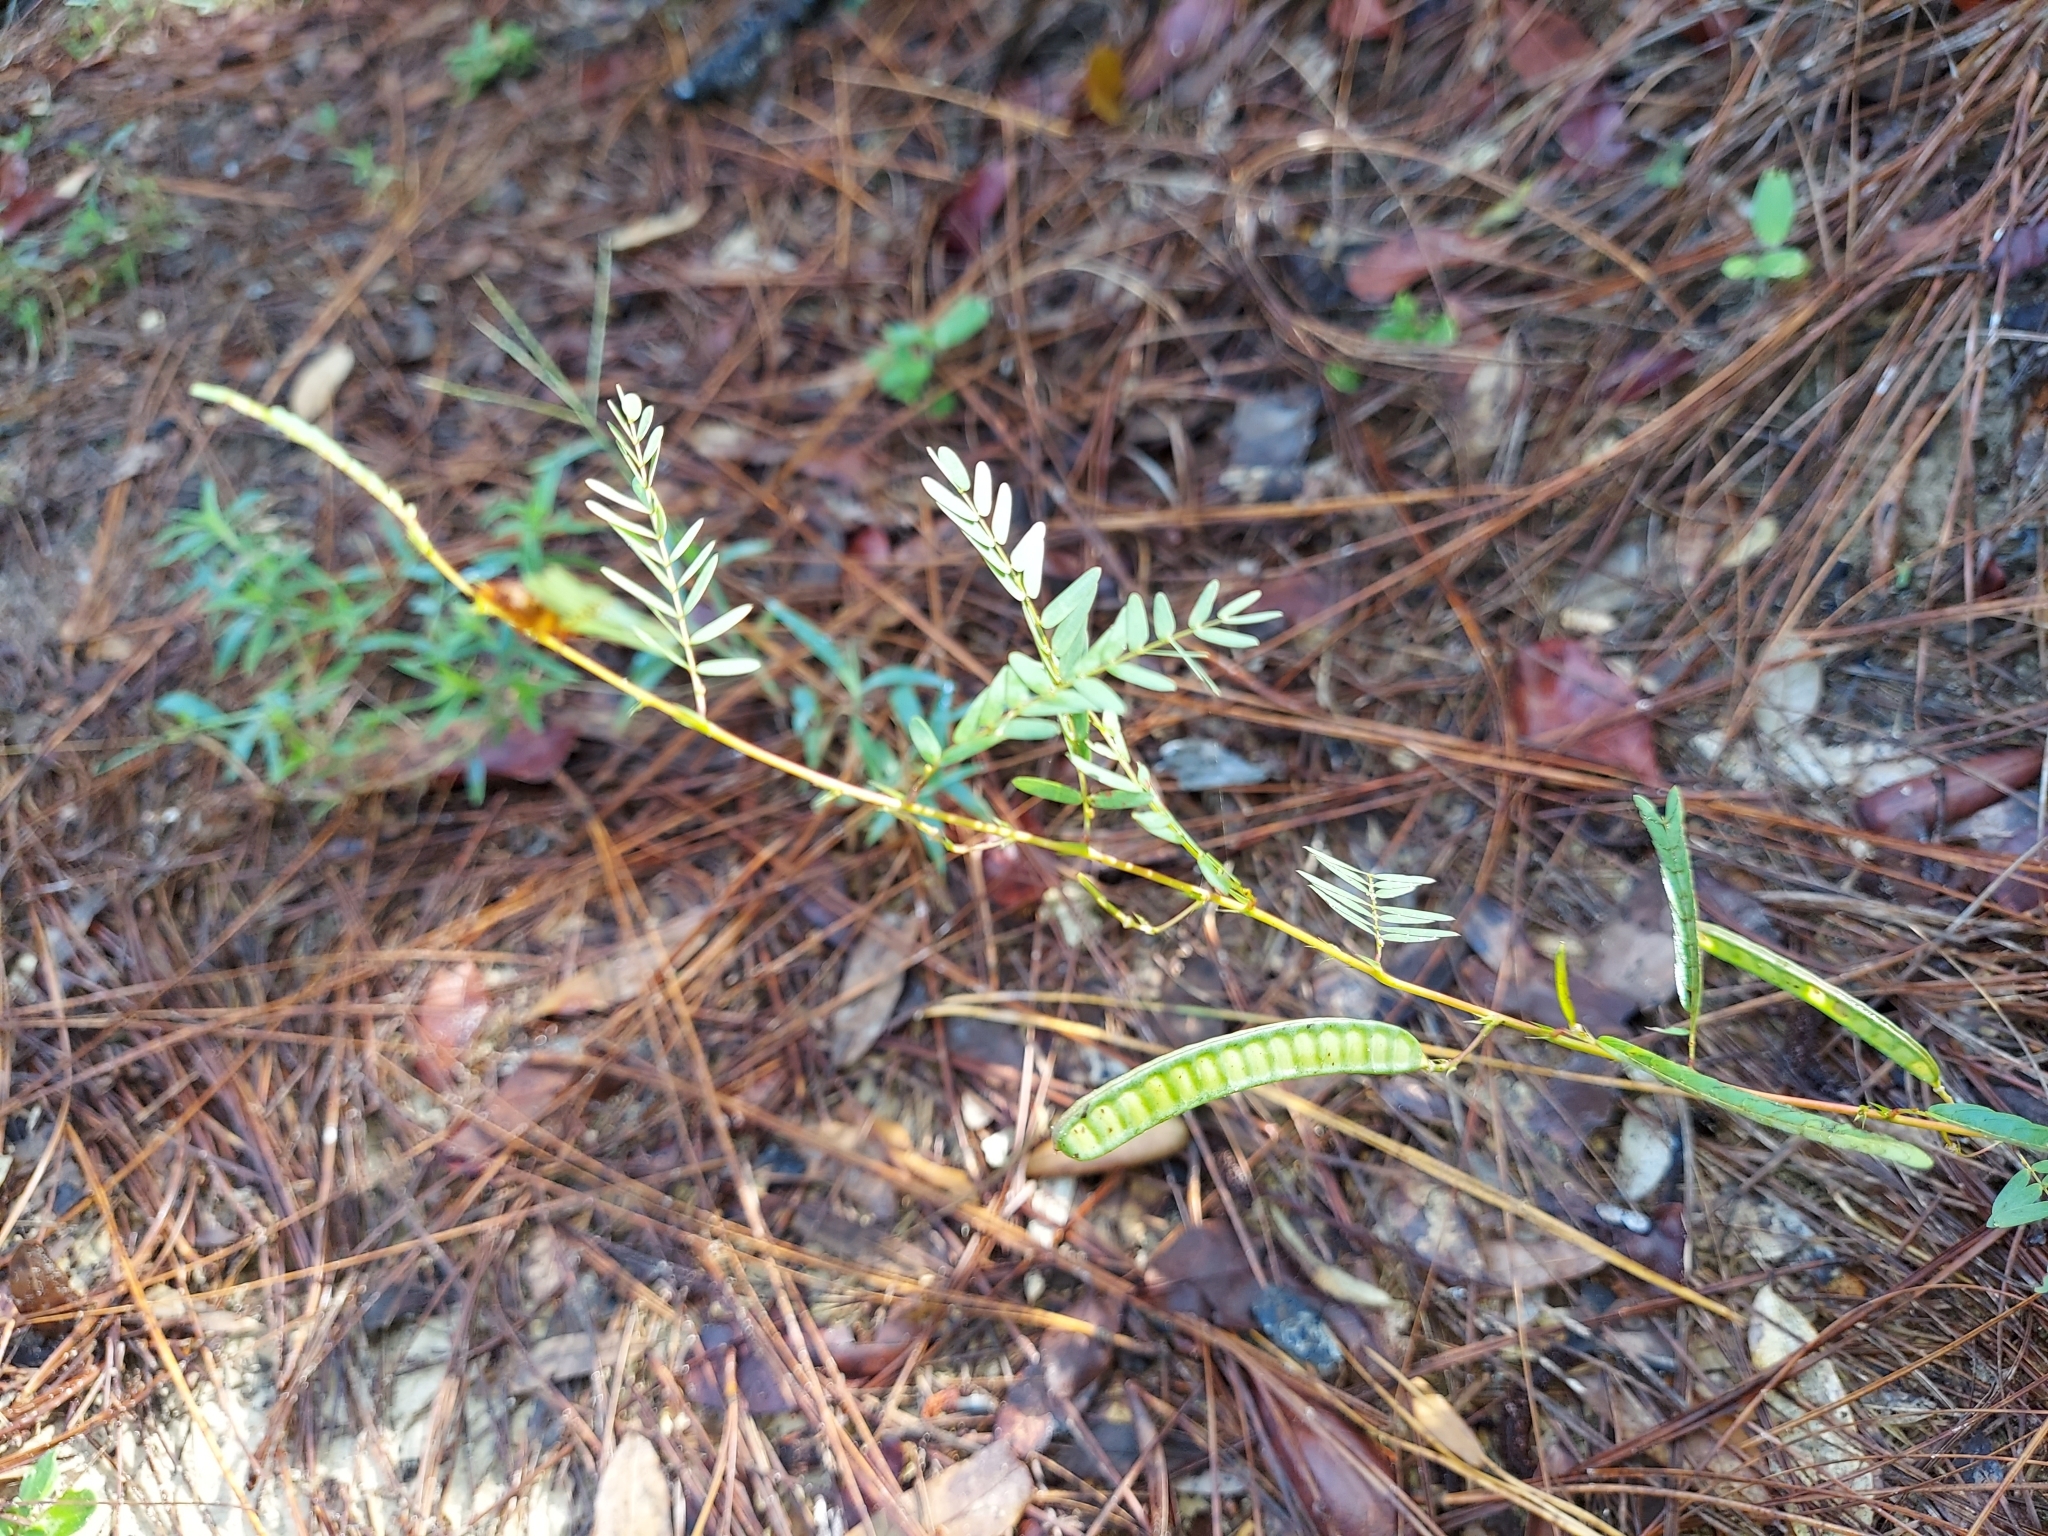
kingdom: Plantae
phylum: Tracheophyta
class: Magnoliopsida
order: Fabales
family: Fabaceae
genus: Chamaecrista
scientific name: Chamaecrista fasciculata
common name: Golden cassia
